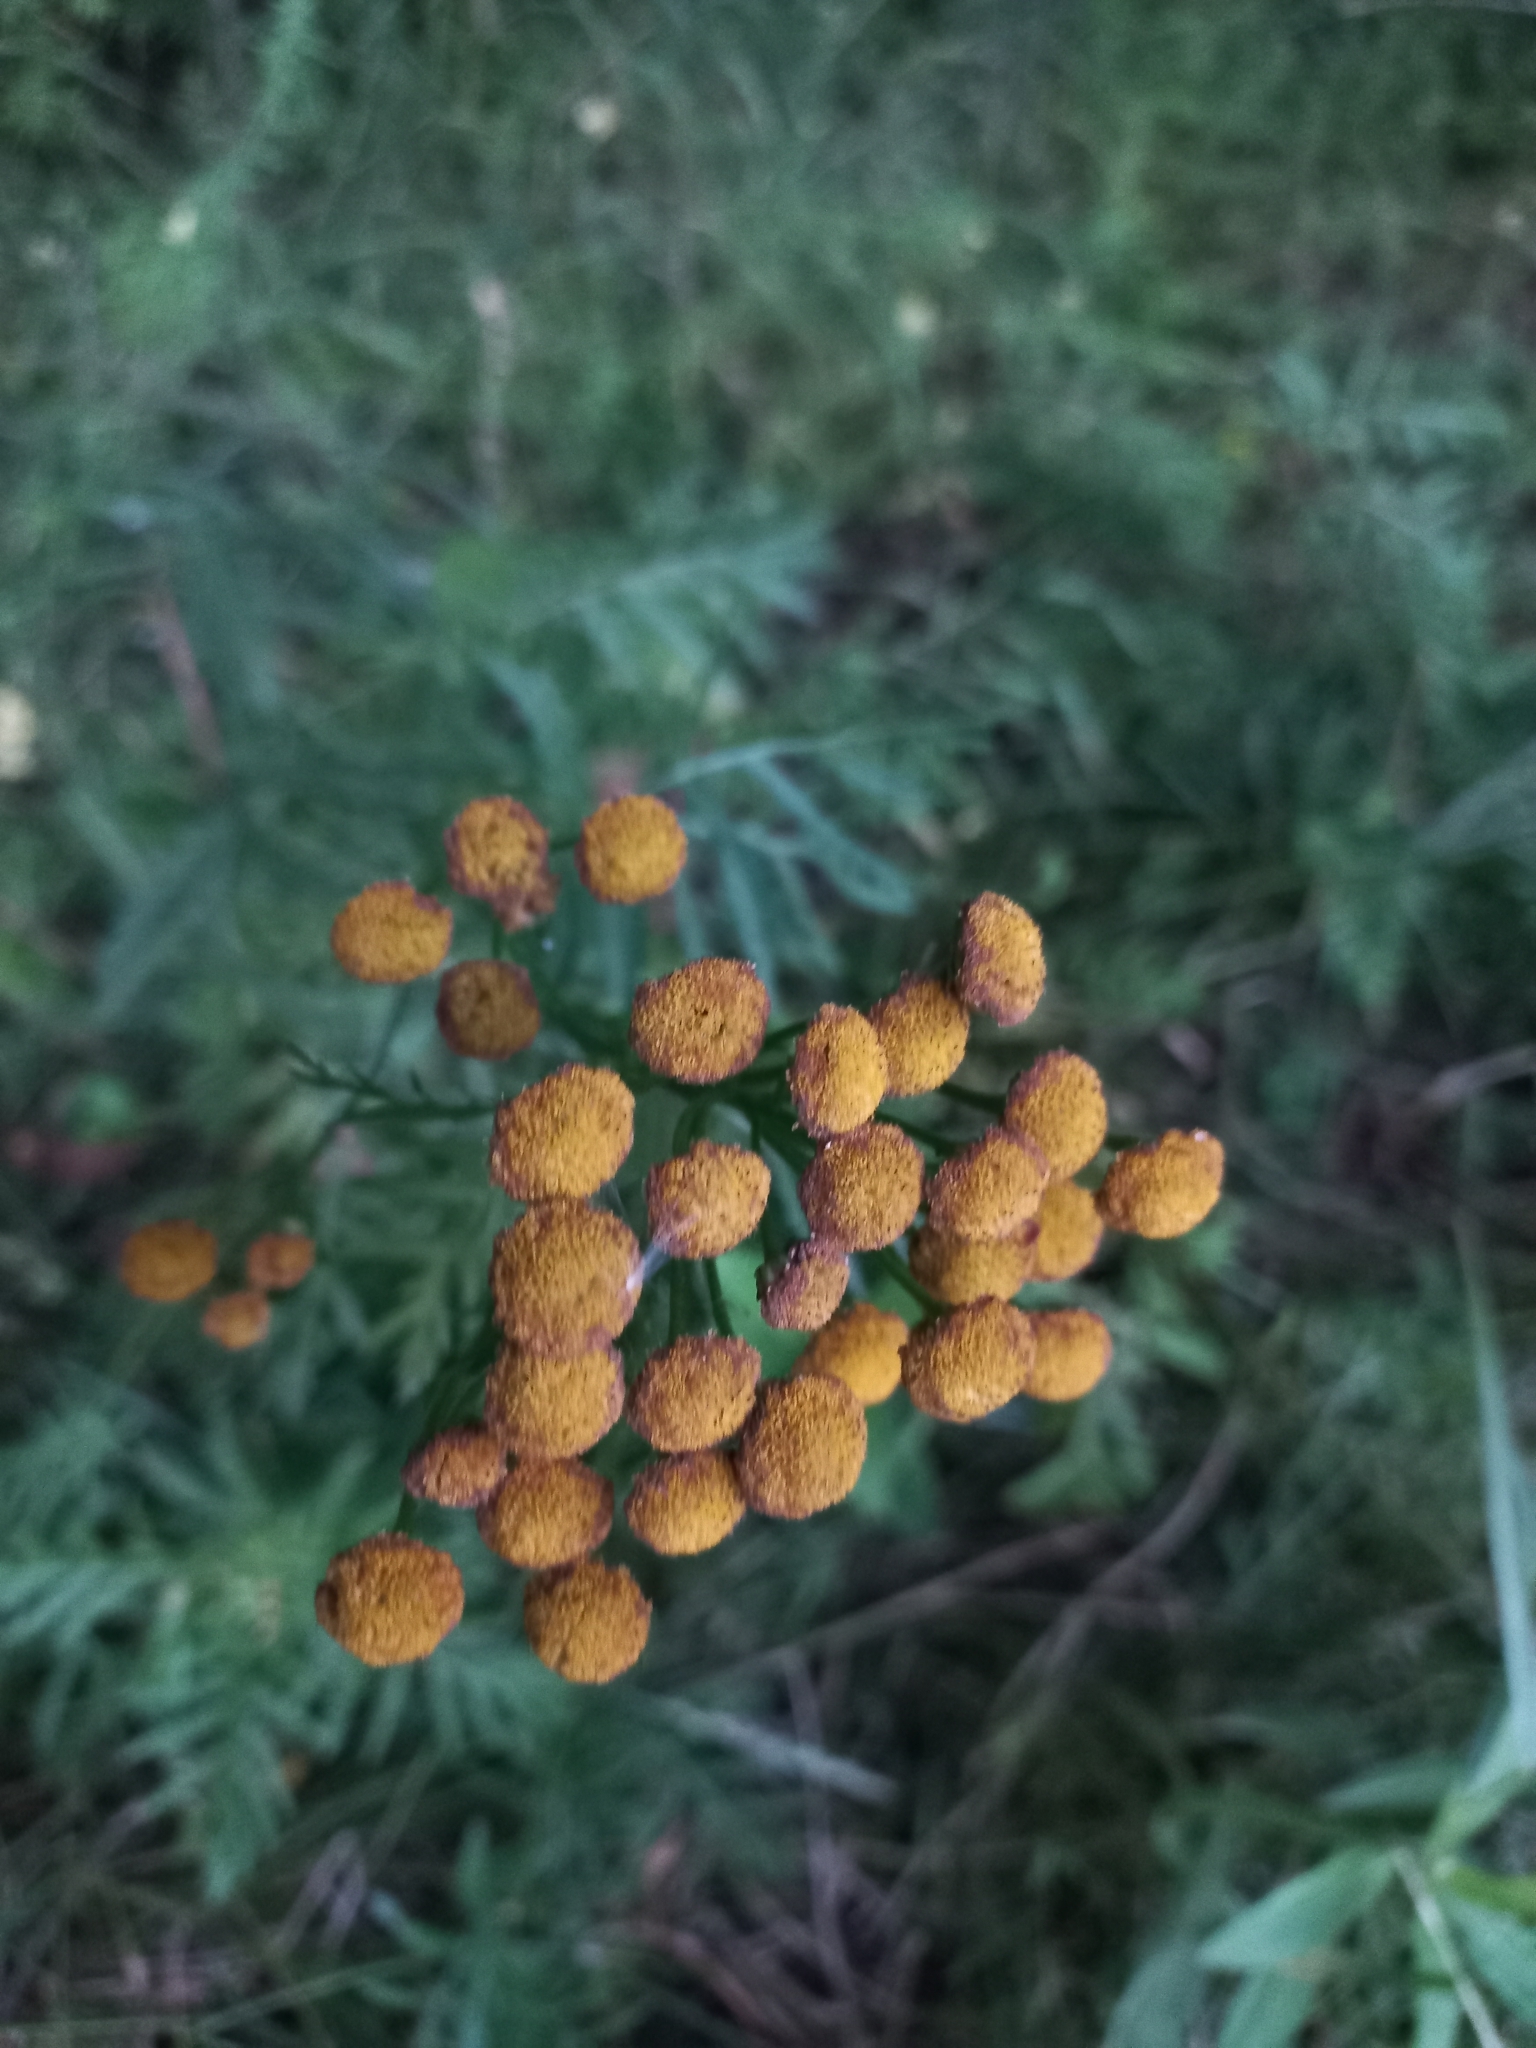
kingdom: Plantae
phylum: Tracheophyta
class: Magnoliopsida
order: Asterales
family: Asteraceae
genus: Tanacetum
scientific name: Tanacetum vulgare
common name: Common tansy
